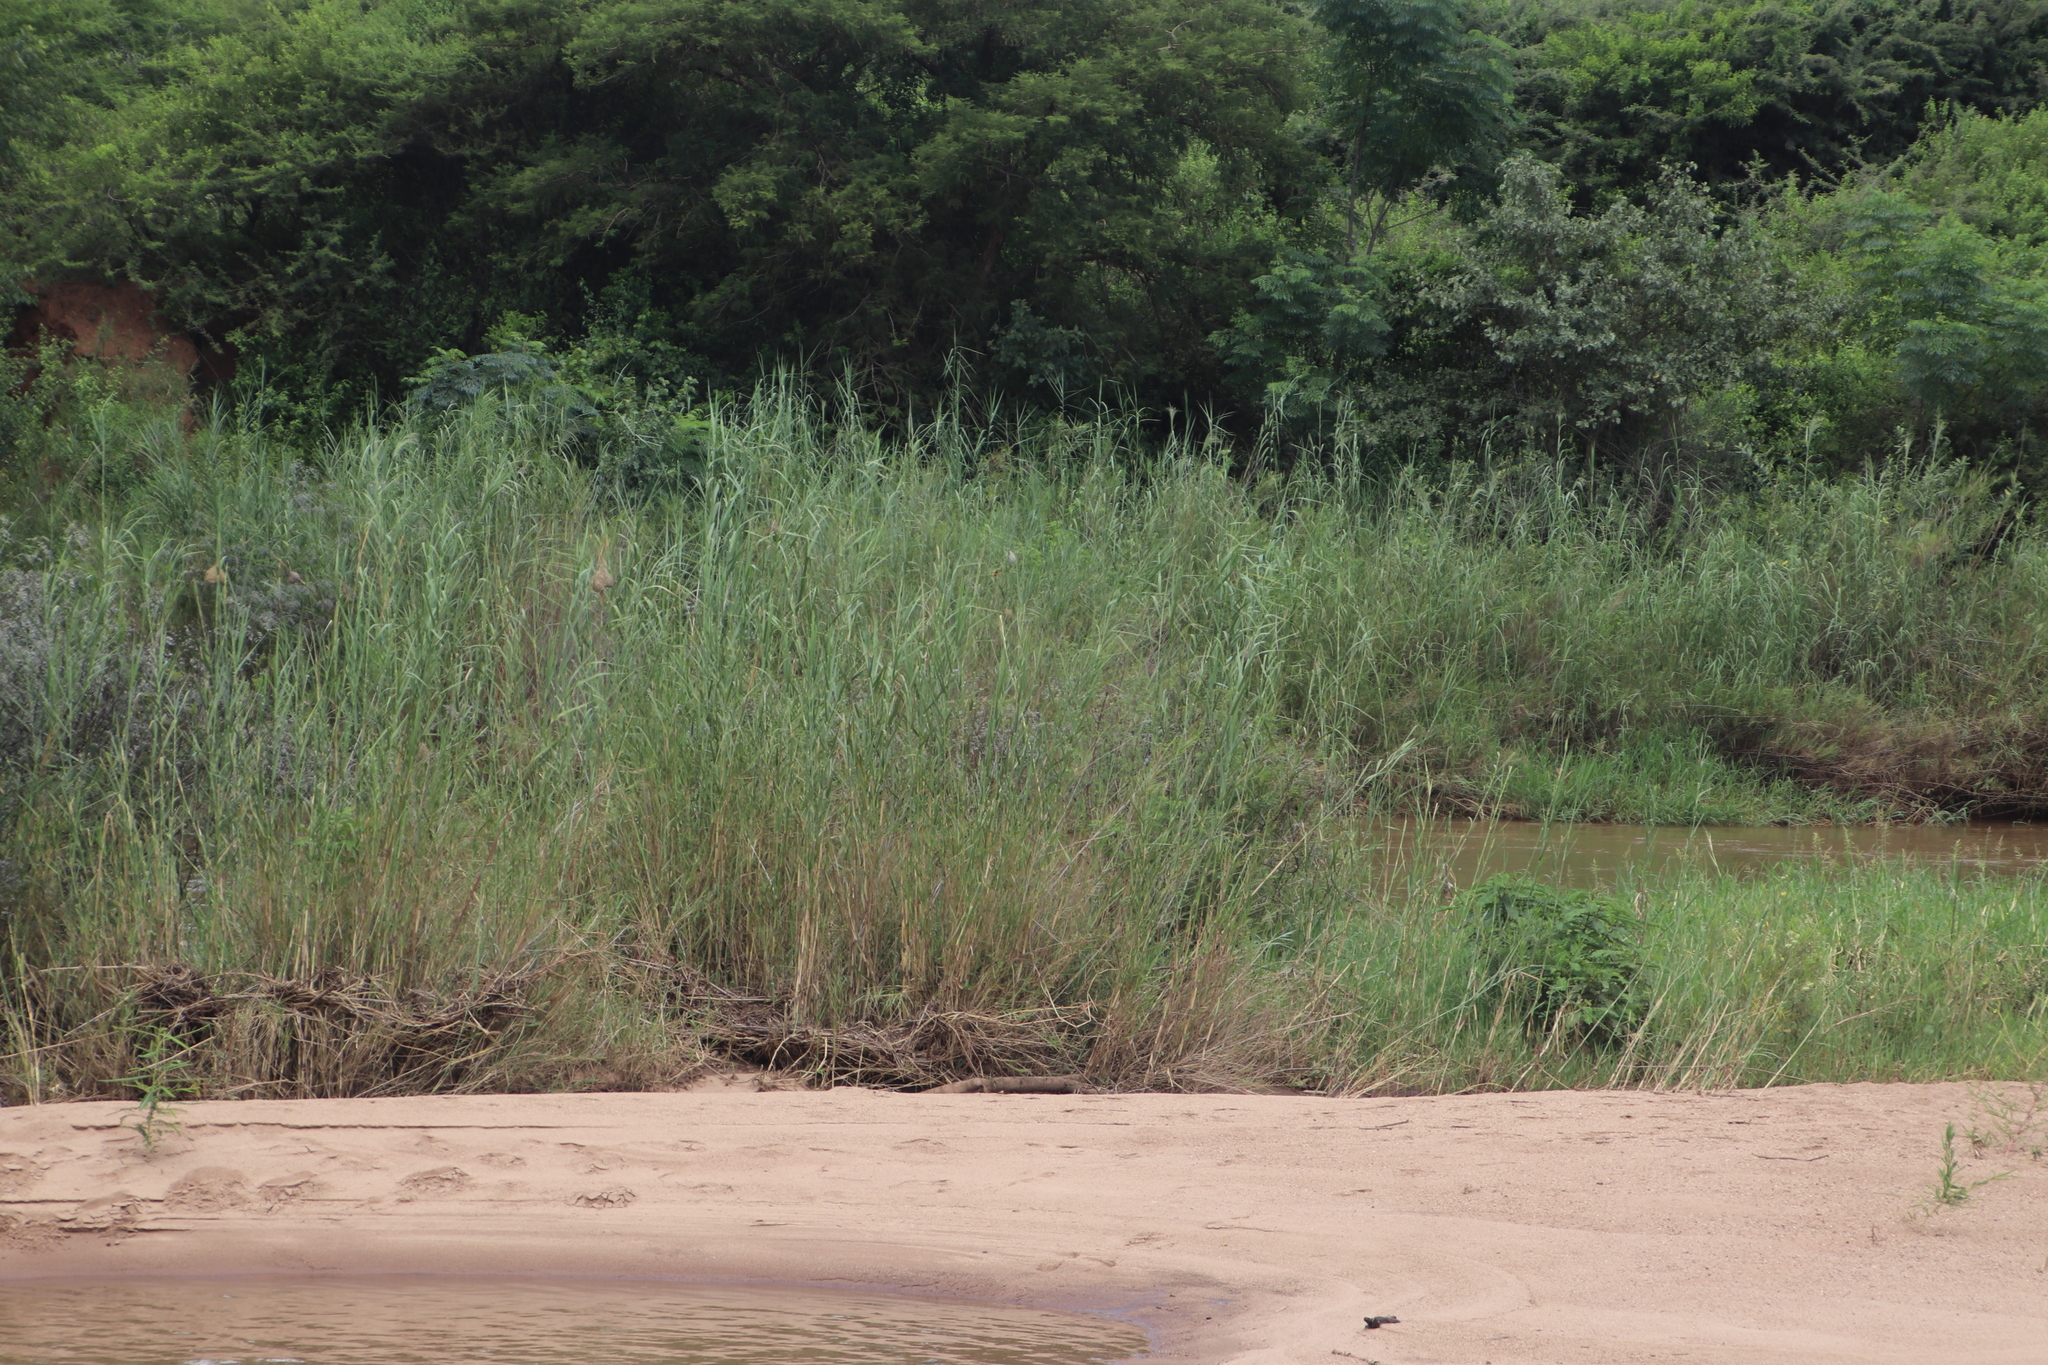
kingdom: Plantae
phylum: Tracheophyta
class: Liliopsida
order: Poales
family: Poaceae
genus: Phragmites
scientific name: Phragmites mauritianus
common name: Reed grass
